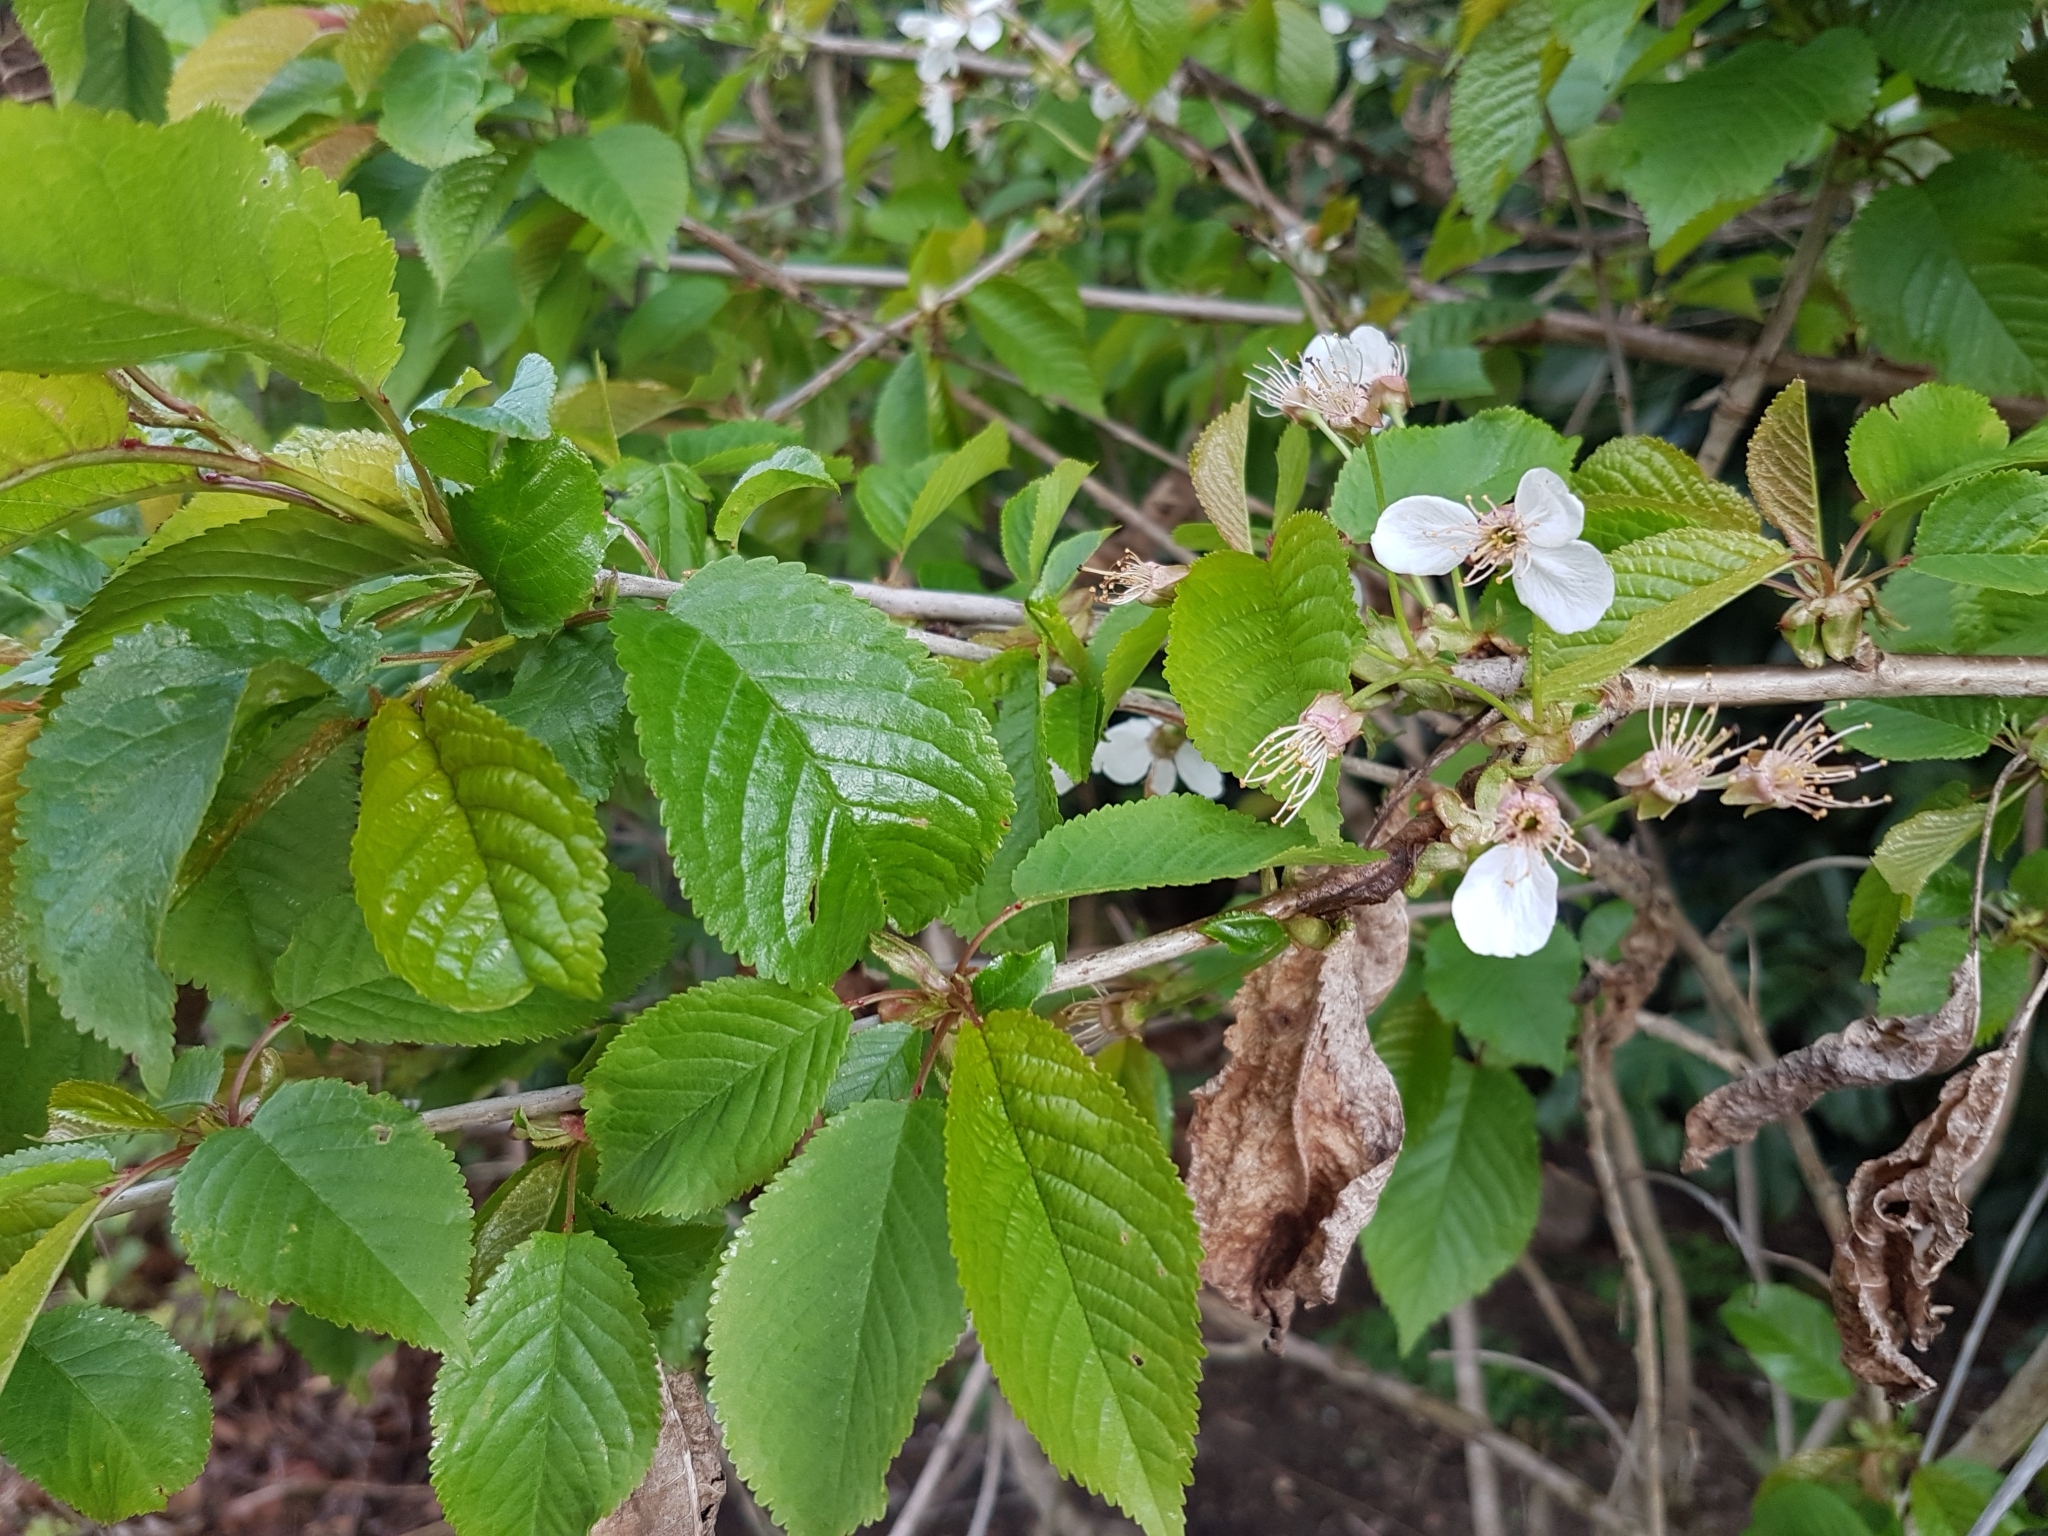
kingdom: Plantae
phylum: Tracheophyta
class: Magnoliopsida
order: Rosales
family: Rosaceae
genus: Prunus
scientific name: Prunus avium
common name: Sweet cherry
